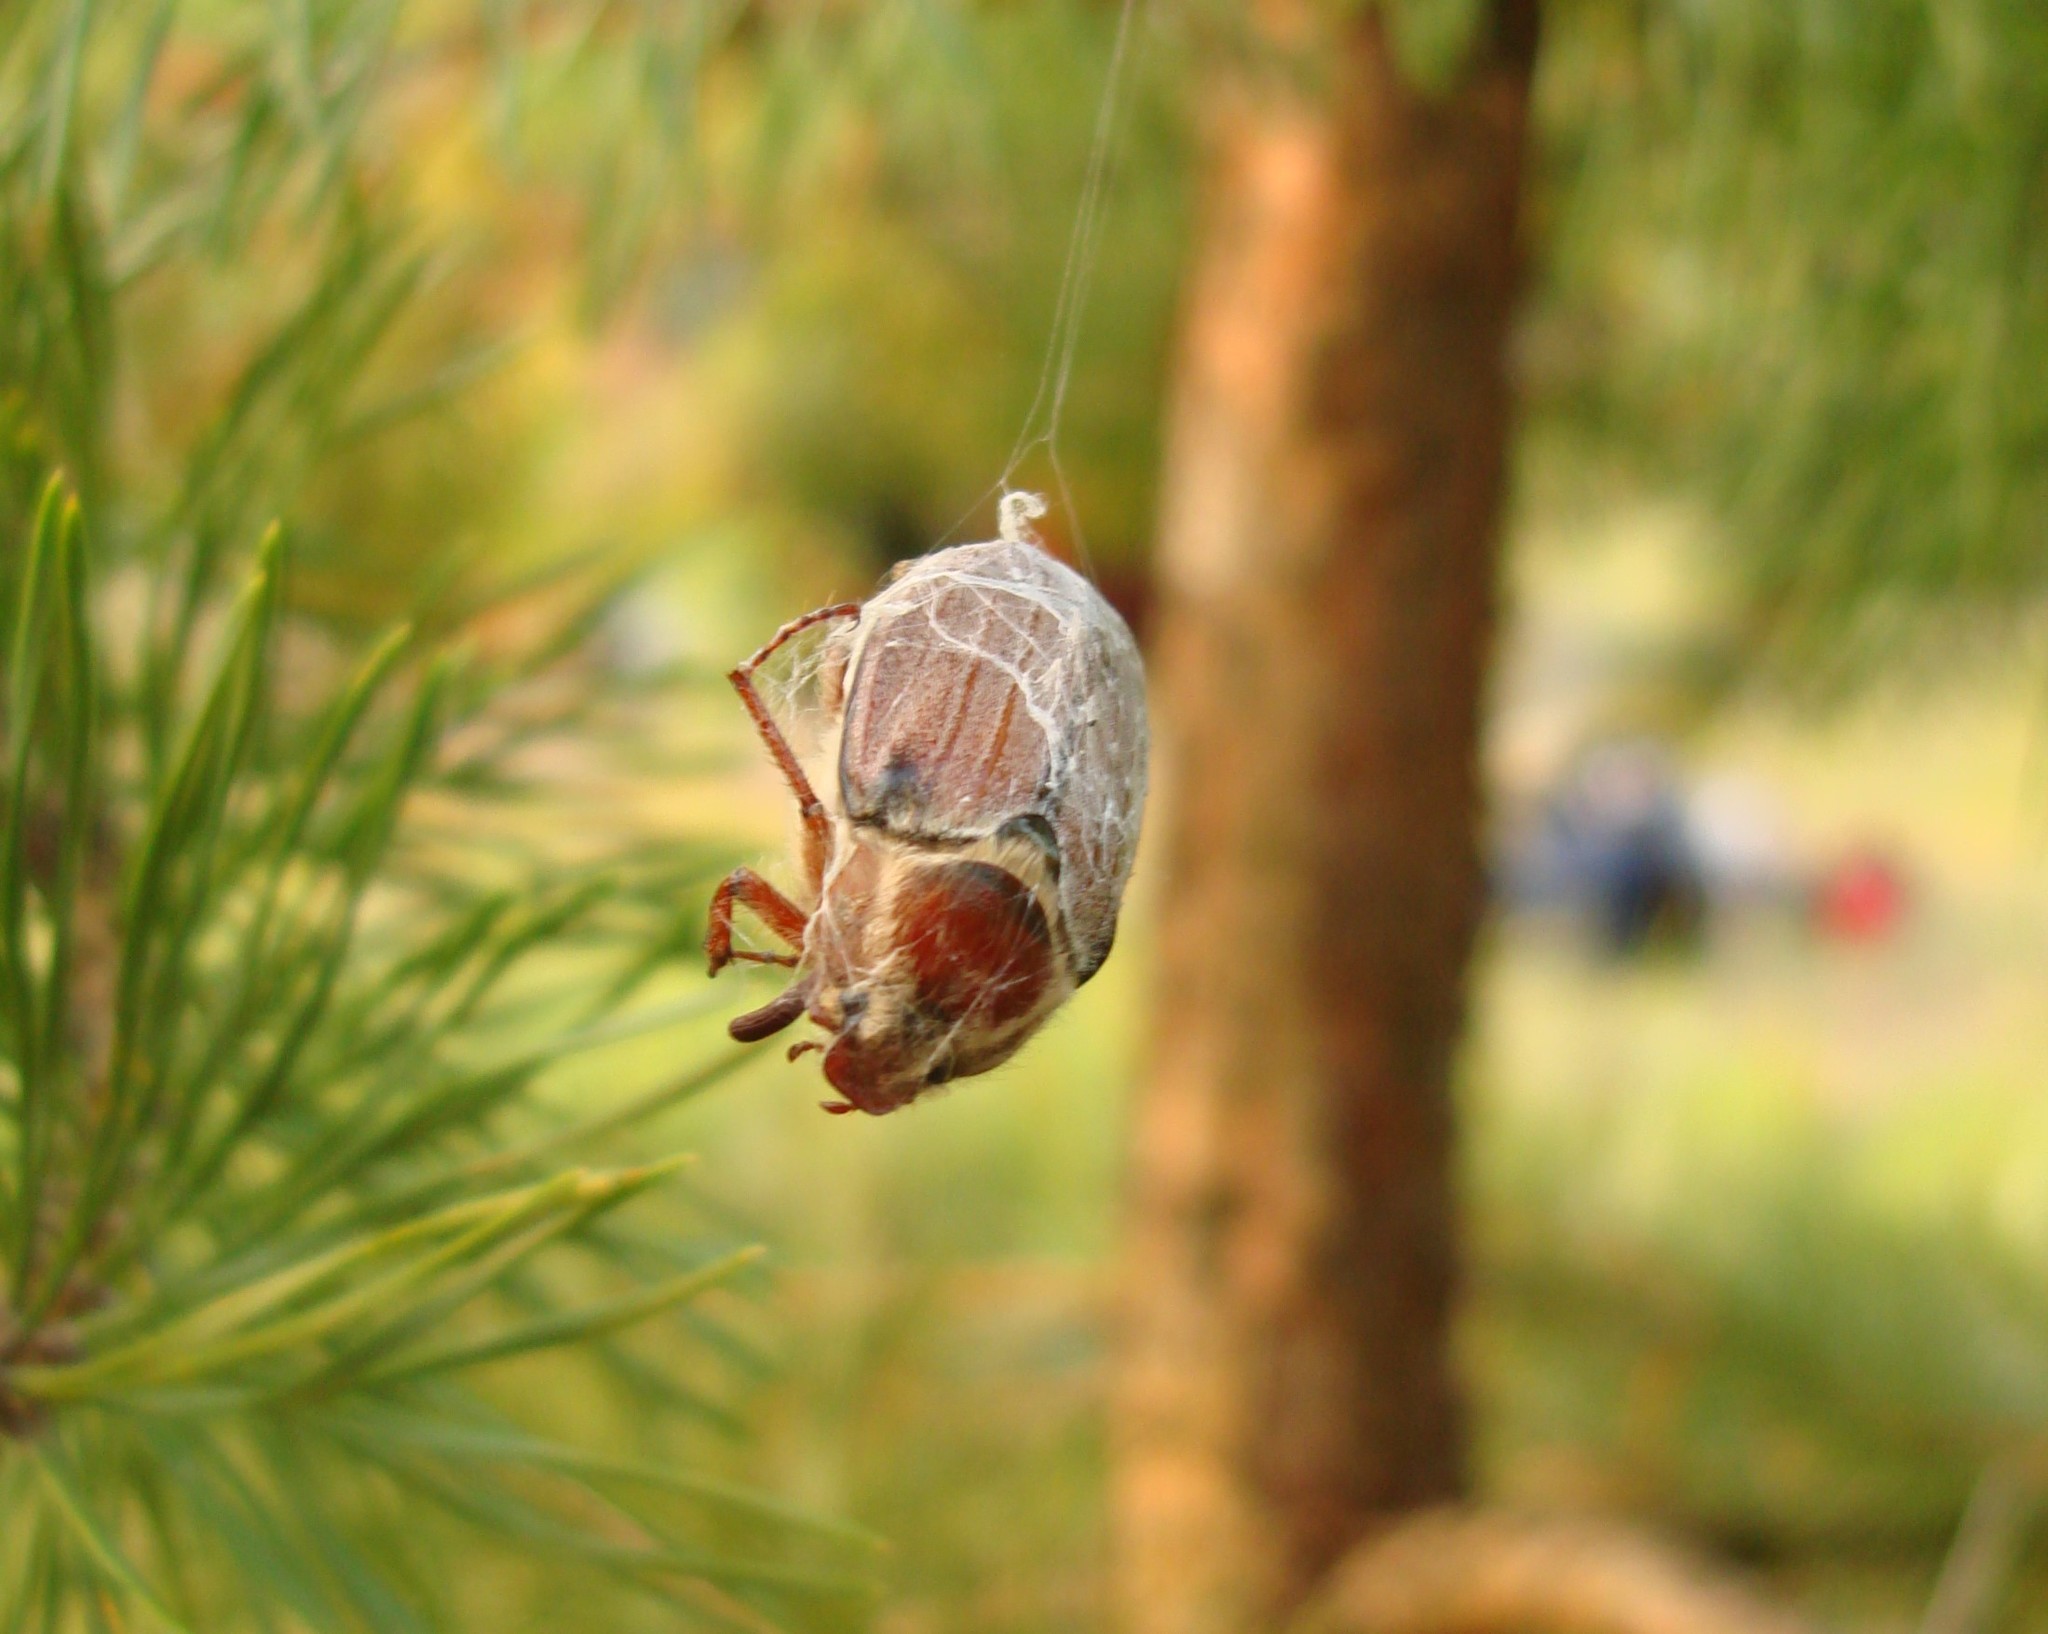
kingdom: Animalia
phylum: Arthropoda
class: Insecta
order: Coleoptera
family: Scarabaeidae
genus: Melolontha
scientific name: Melolontha hippocastani
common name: Chestnut cockchafer
